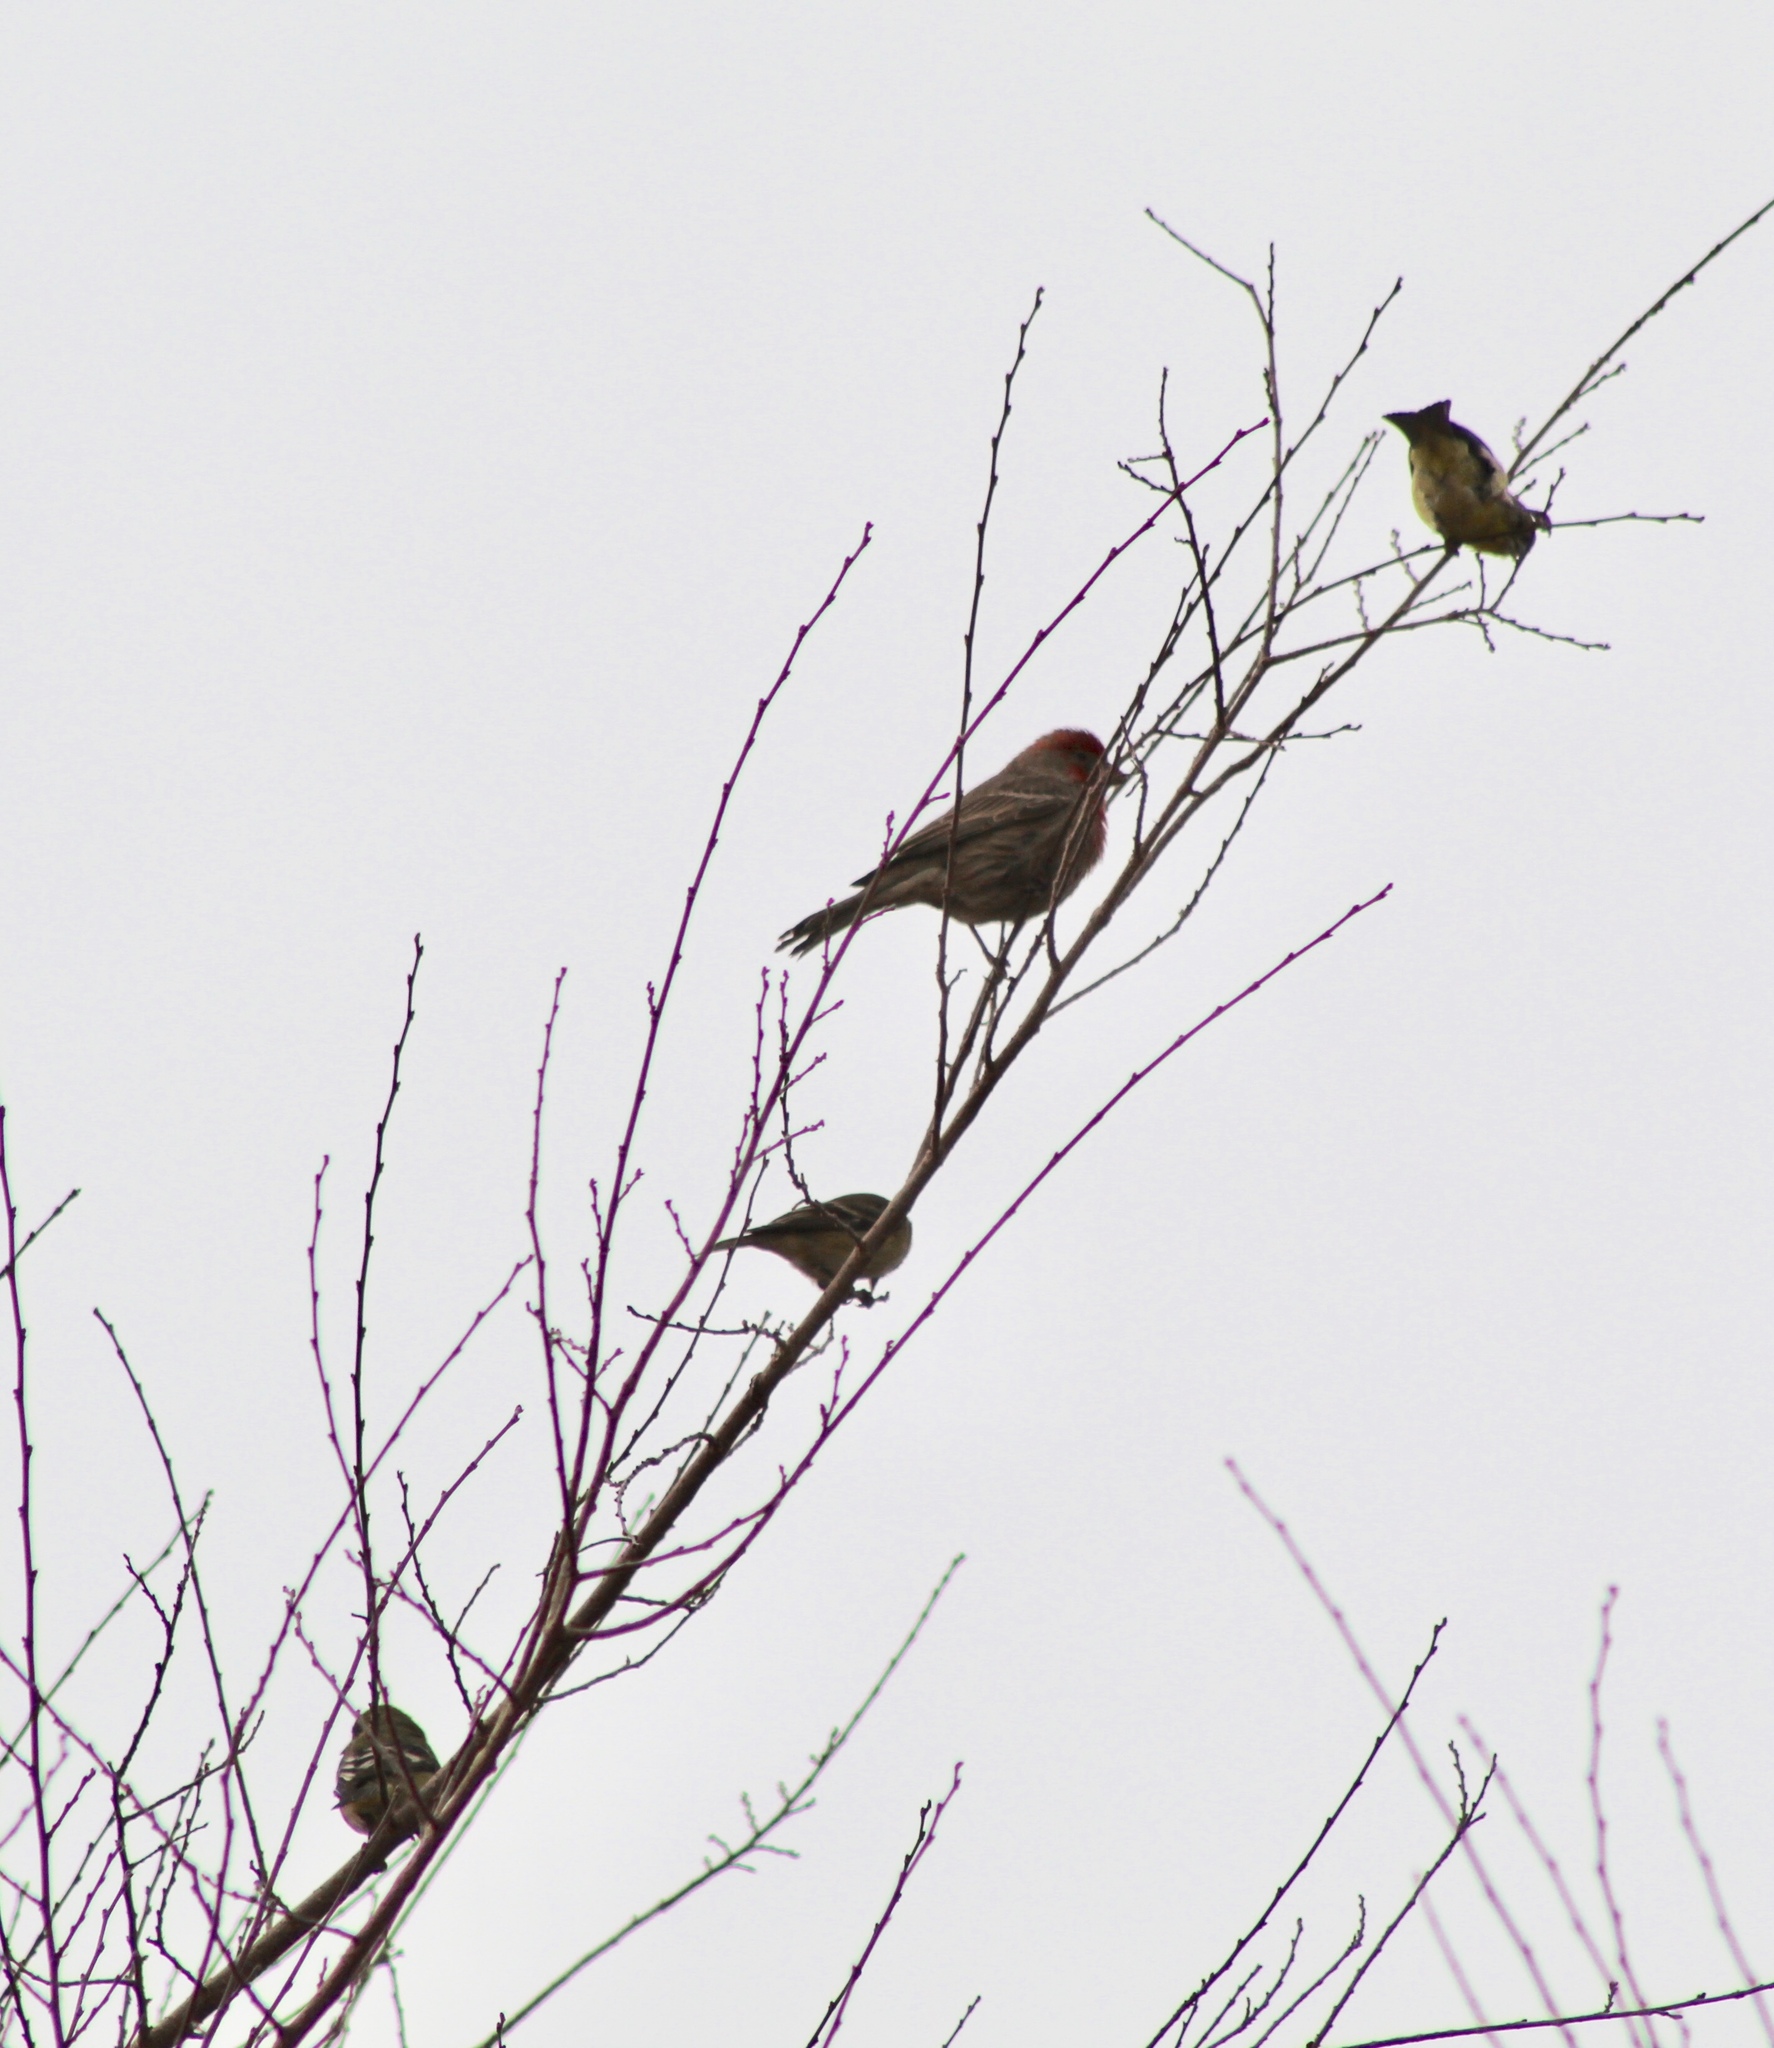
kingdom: Animalia
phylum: Chordata
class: Aves
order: Passeriformes
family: Fringillidae
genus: Haemorhous
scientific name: Haemorhous mexicanus
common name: House finch
